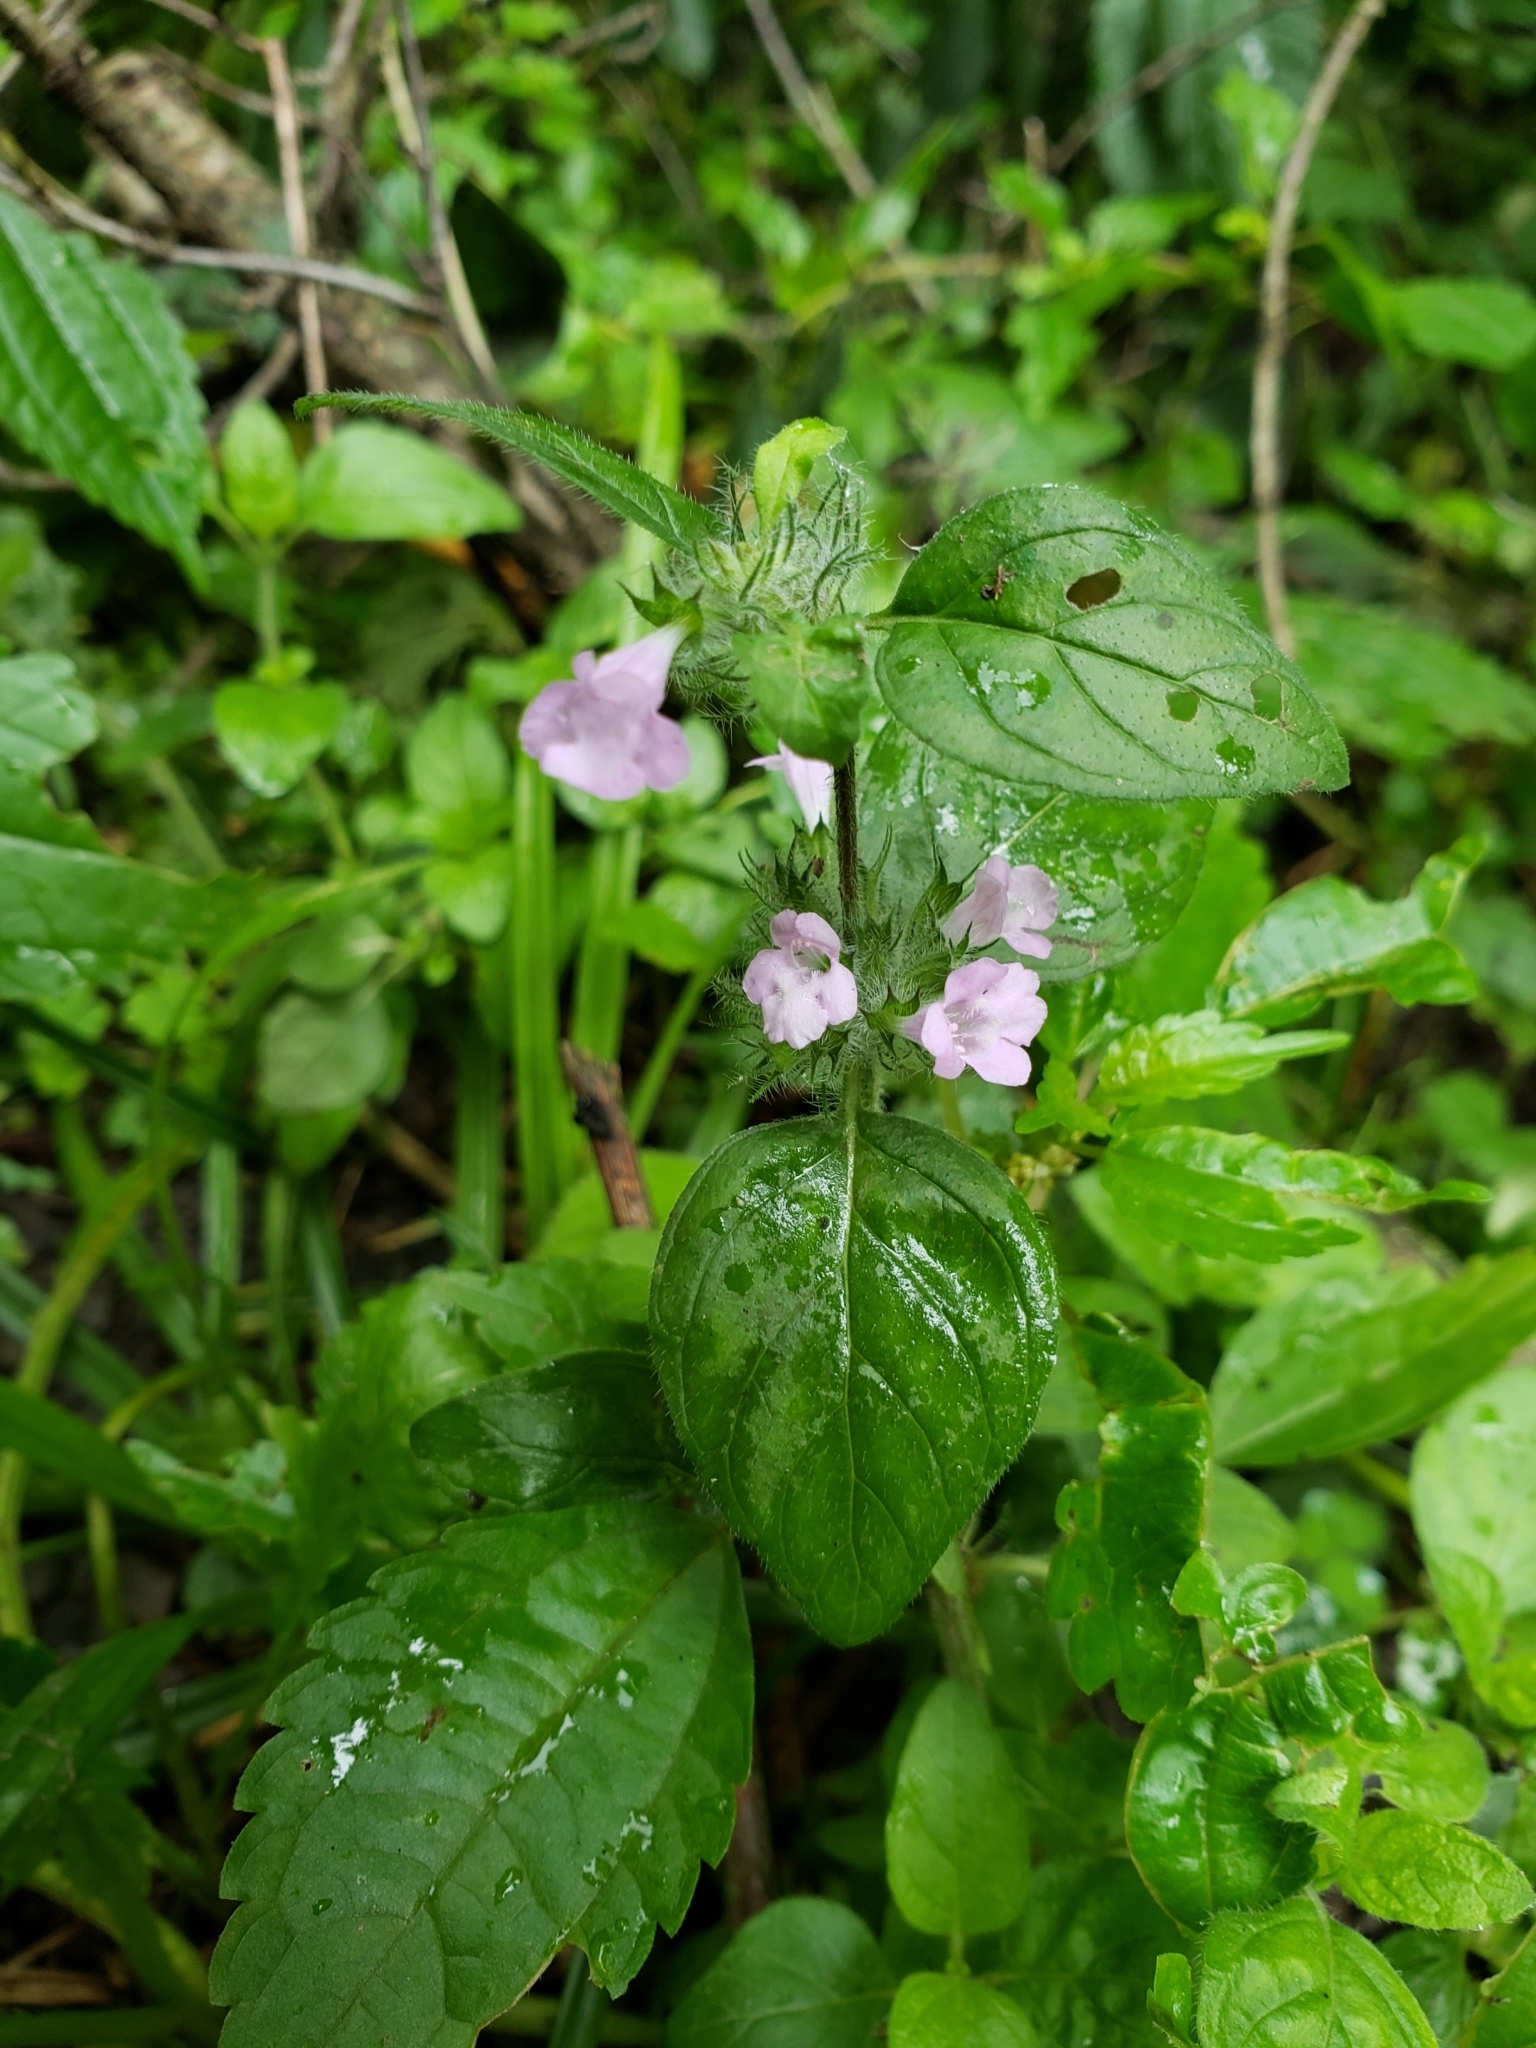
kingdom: Plantae
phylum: Tracheophyta
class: Magnoliopsida
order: Lamiales
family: Lamiaceae
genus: Clinopodium
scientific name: Clinopodium vulgare
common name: Wild basil
